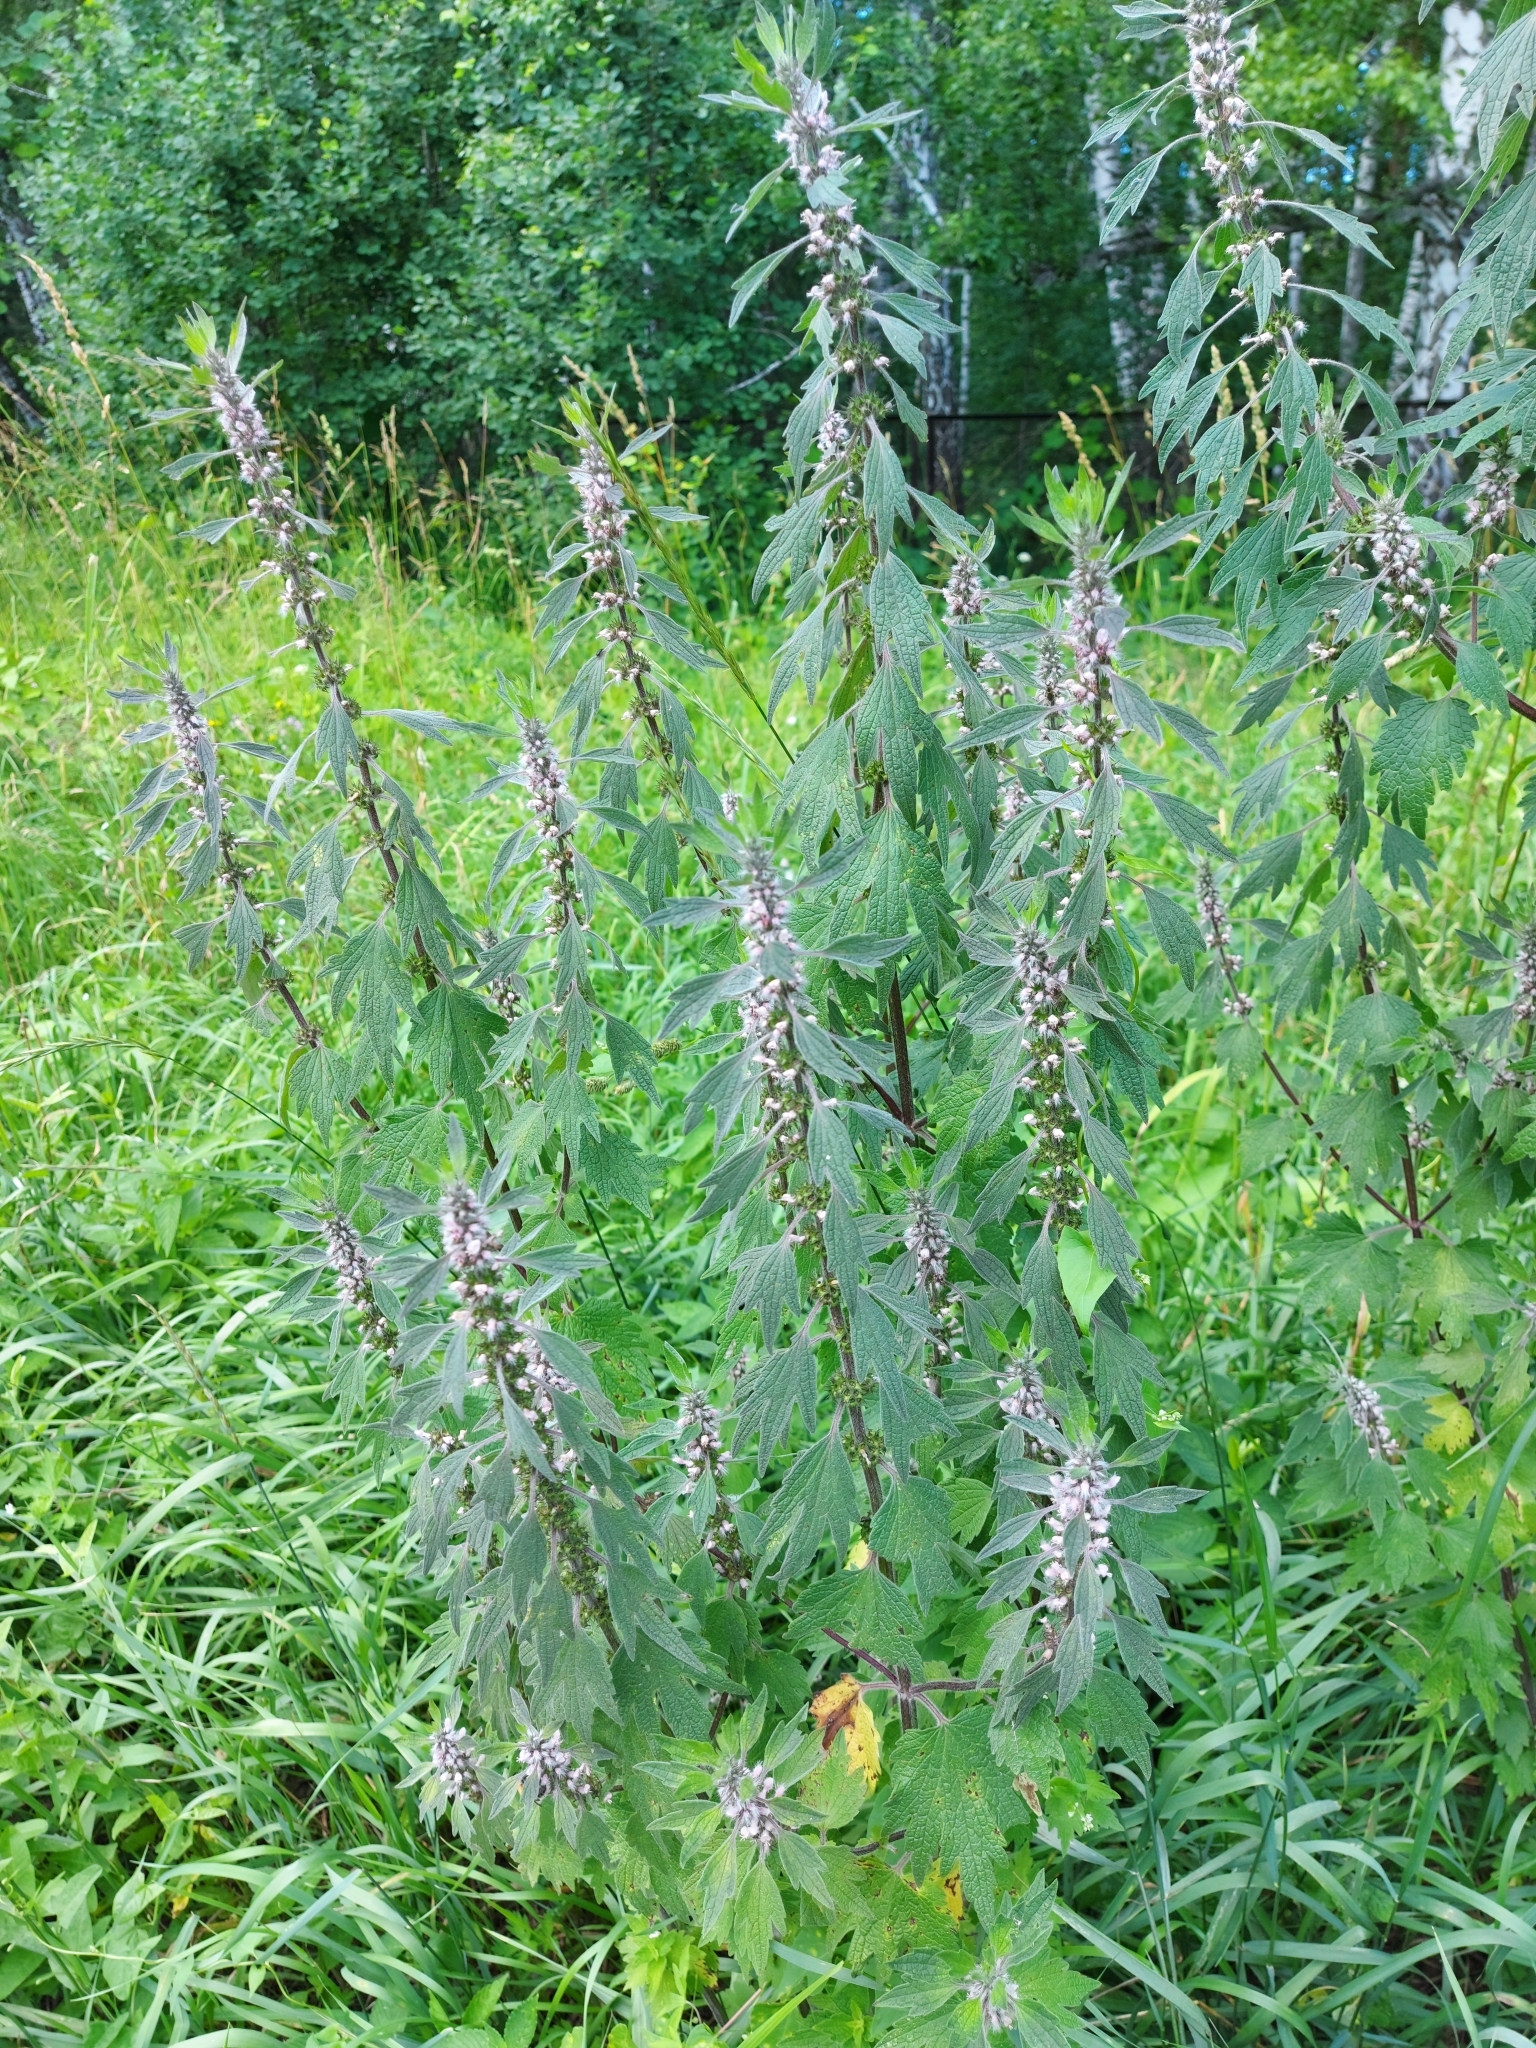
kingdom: Plantae
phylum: Tracheophyta
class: Magnoliopsida
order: Lamiales
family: Lamiaceae
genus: Leonurus
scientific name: Leonurus quinquelobatus
